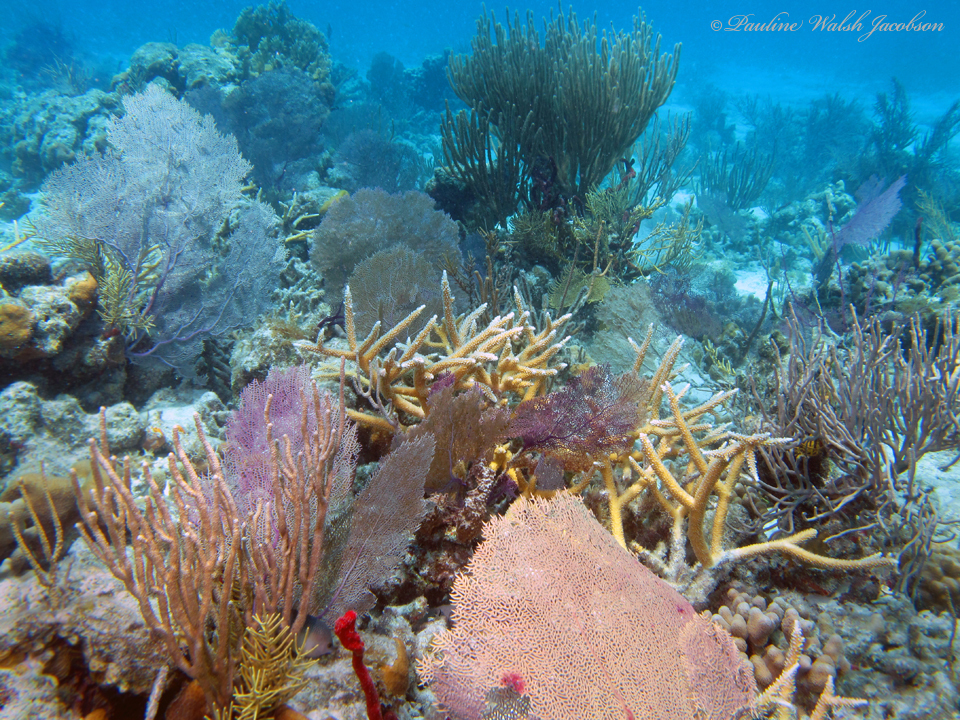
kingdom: Animalia
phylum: Cnidaria
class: Anthozoa
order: Scleractinia
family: Acroporidae
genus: Acropora
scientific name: Acropora cervicornis
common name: Staghorn coral
